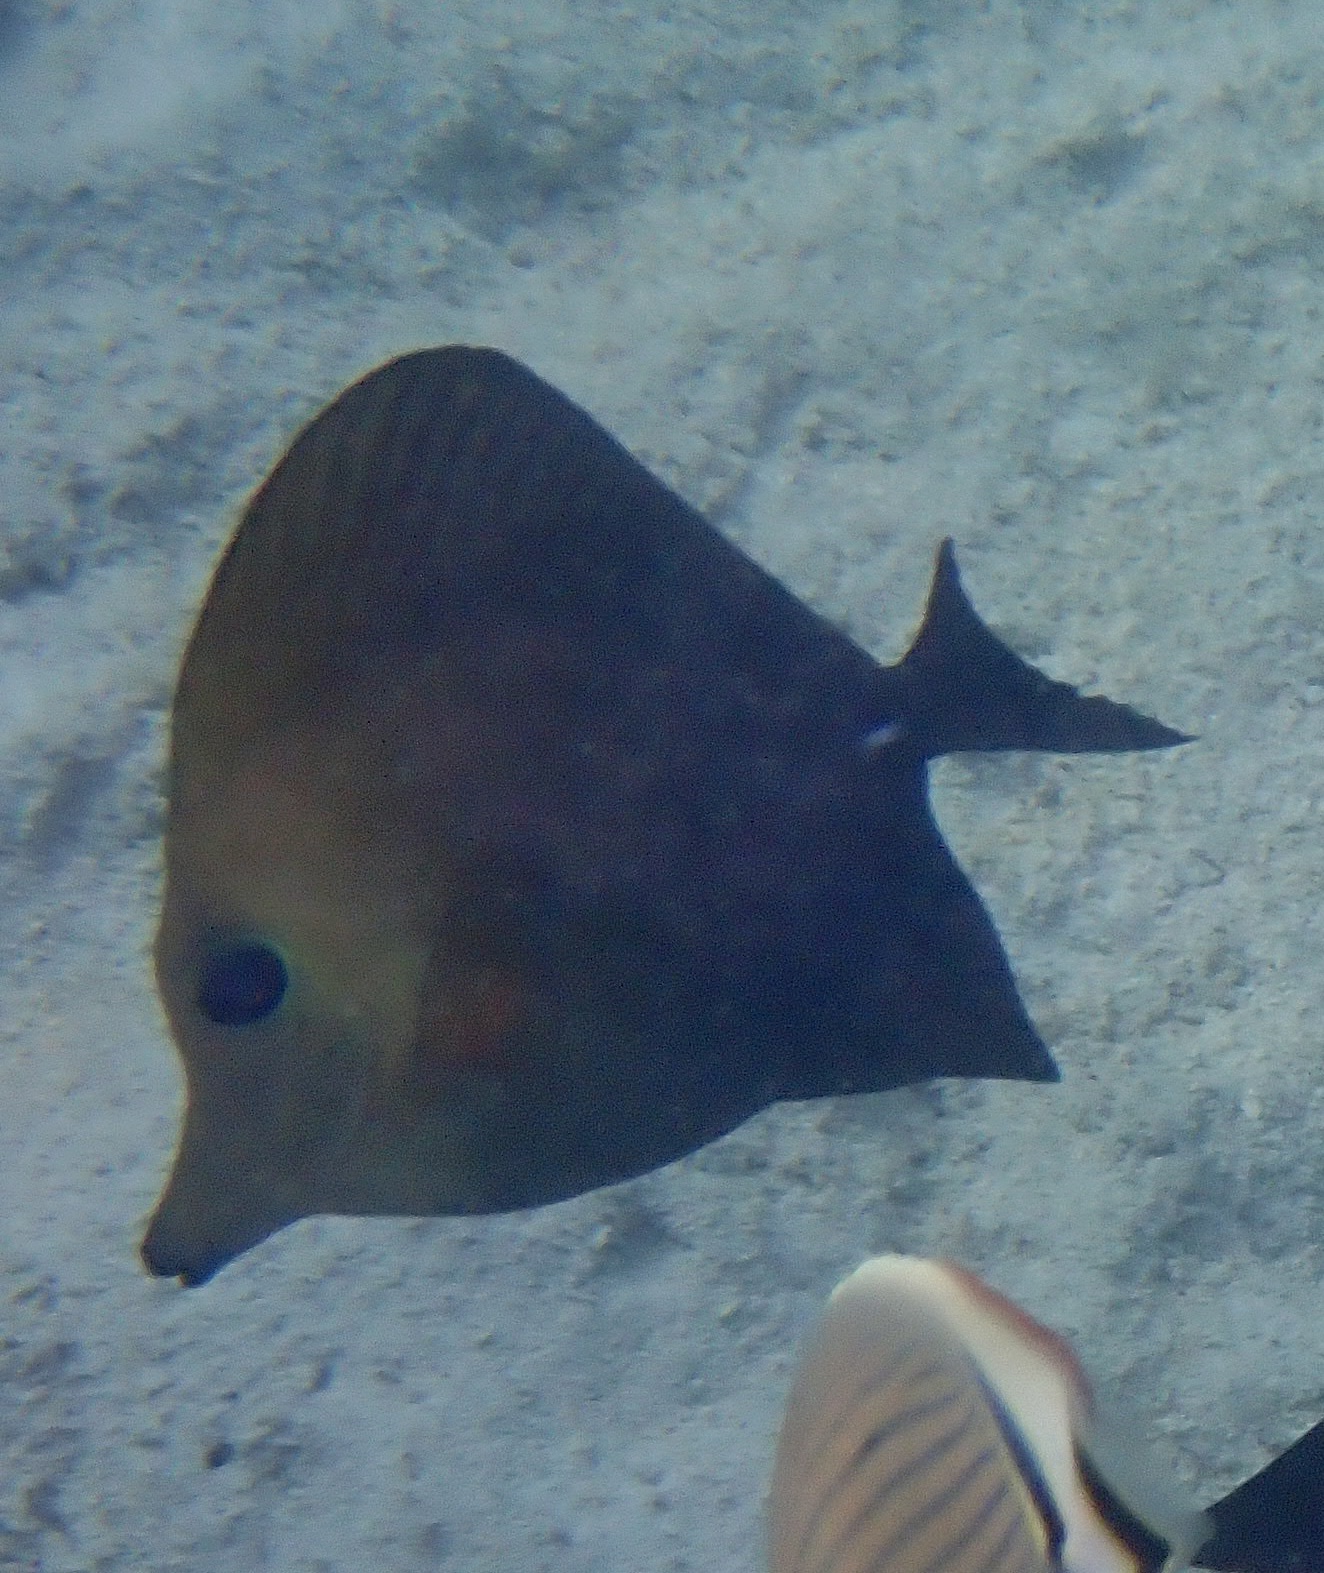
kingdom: Animalia
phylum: Chordata
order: Perciformes
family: Acanthuridae
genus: Zebrasoma
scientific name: Zebrasoma scopas
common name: Twotone tang
